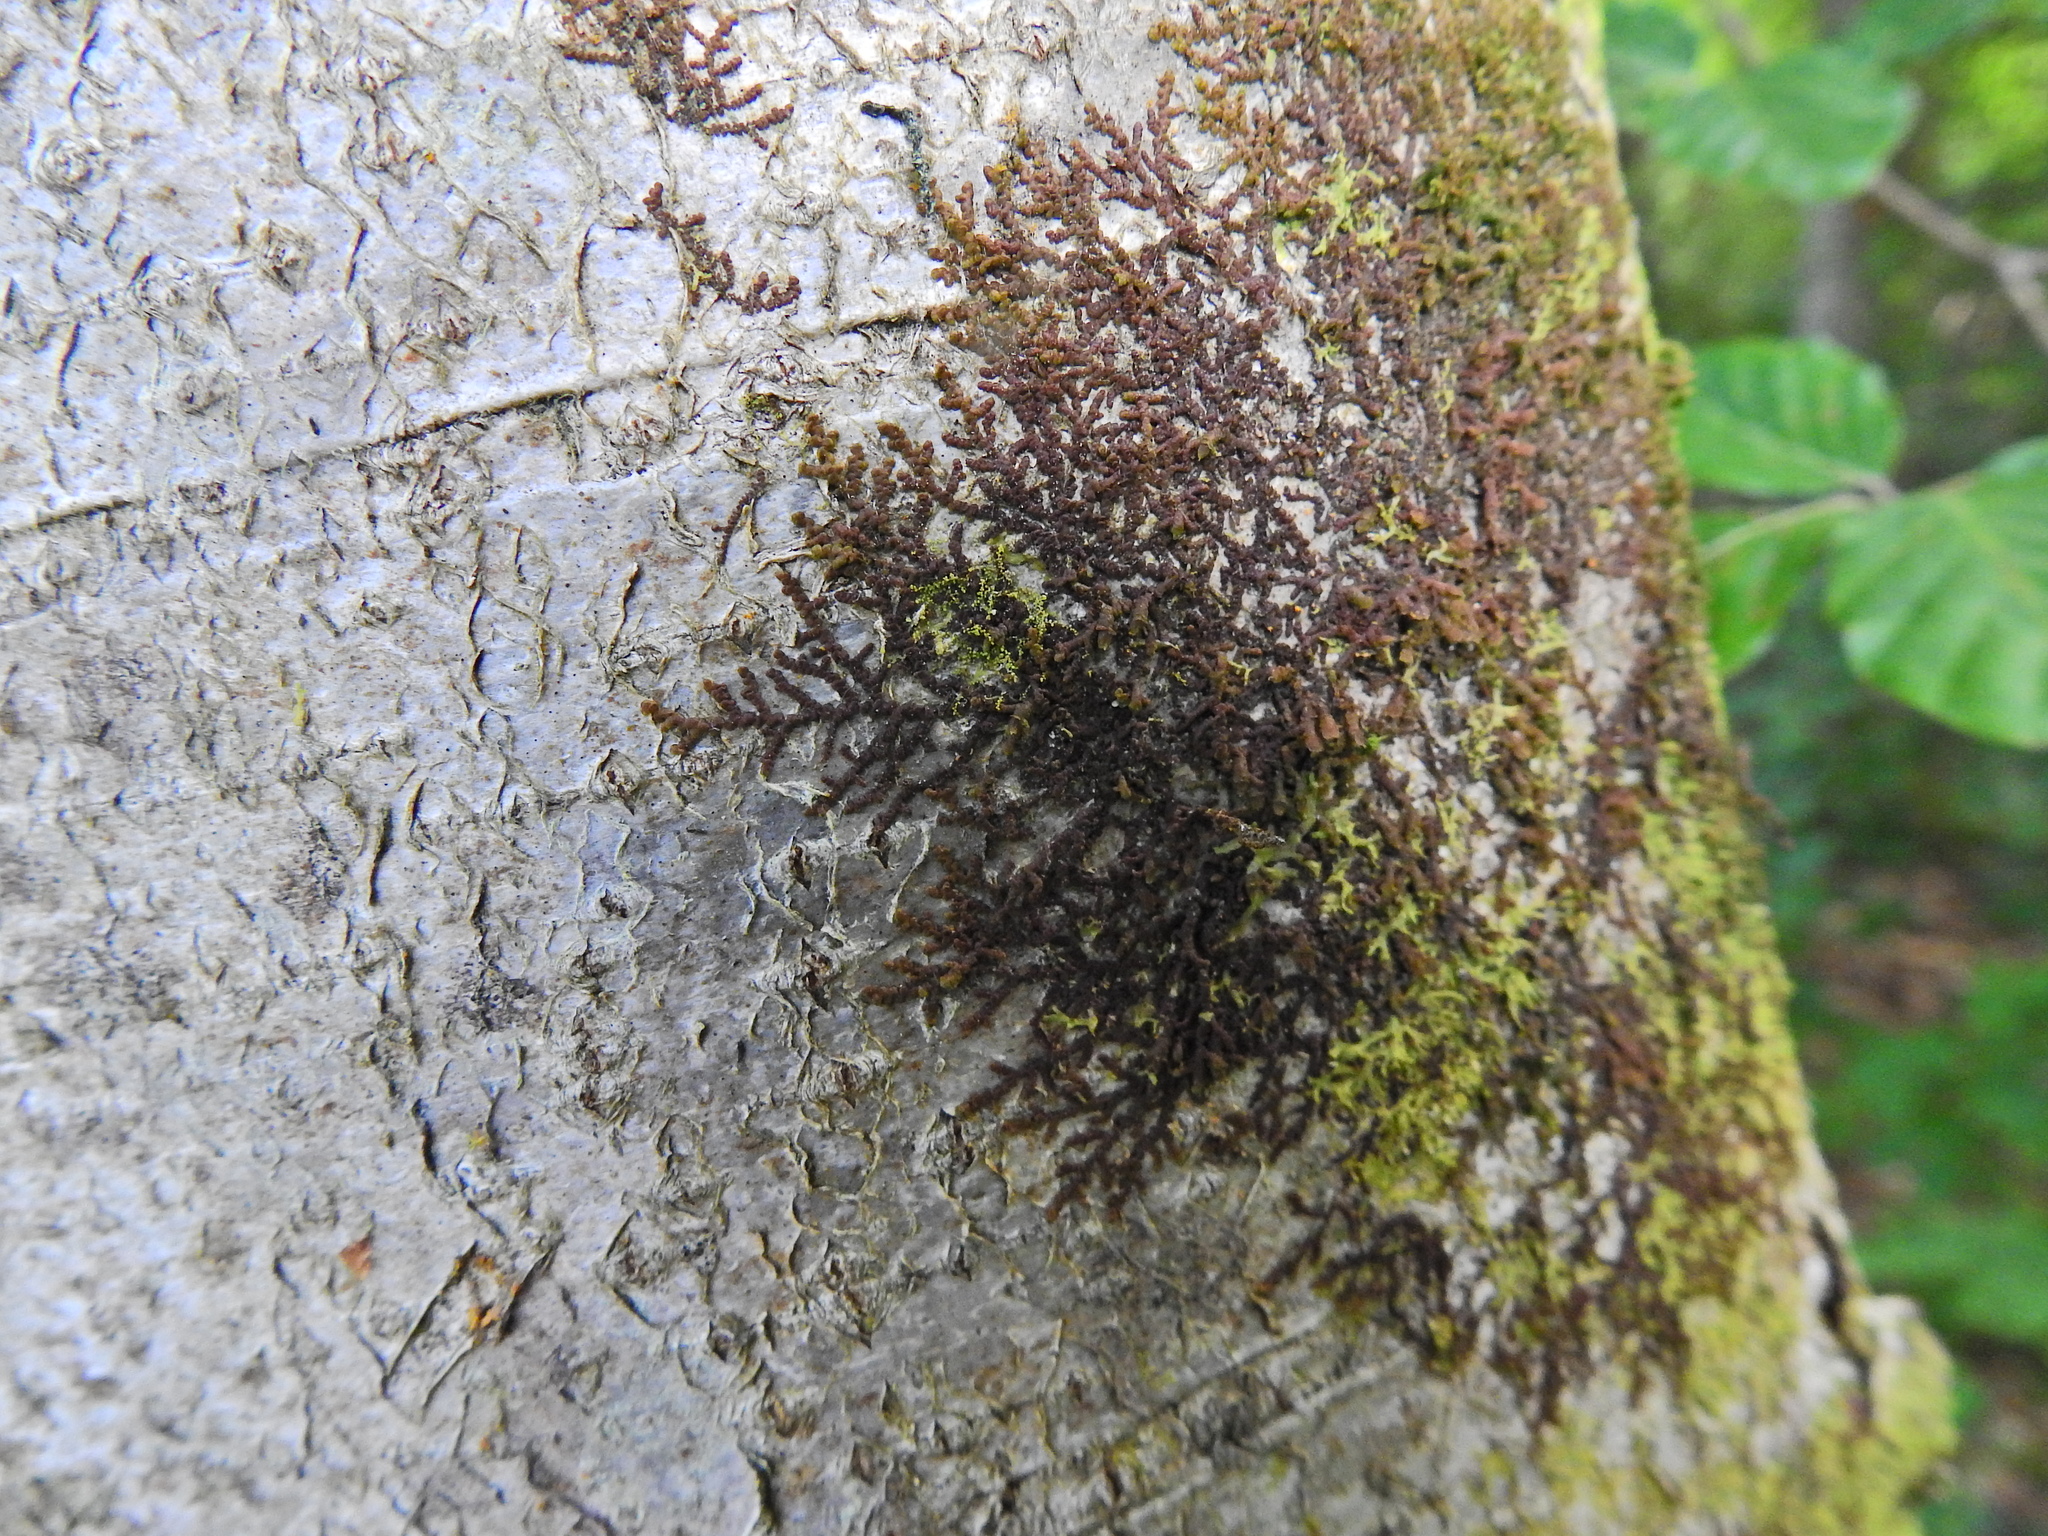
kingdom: Plantae
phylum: Marchantiophyta
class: Jungermanniopsida
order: Porellales
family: Frullaniaceae
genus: Frullania
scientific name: Frullania dilatata
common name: Dilated scalewort
